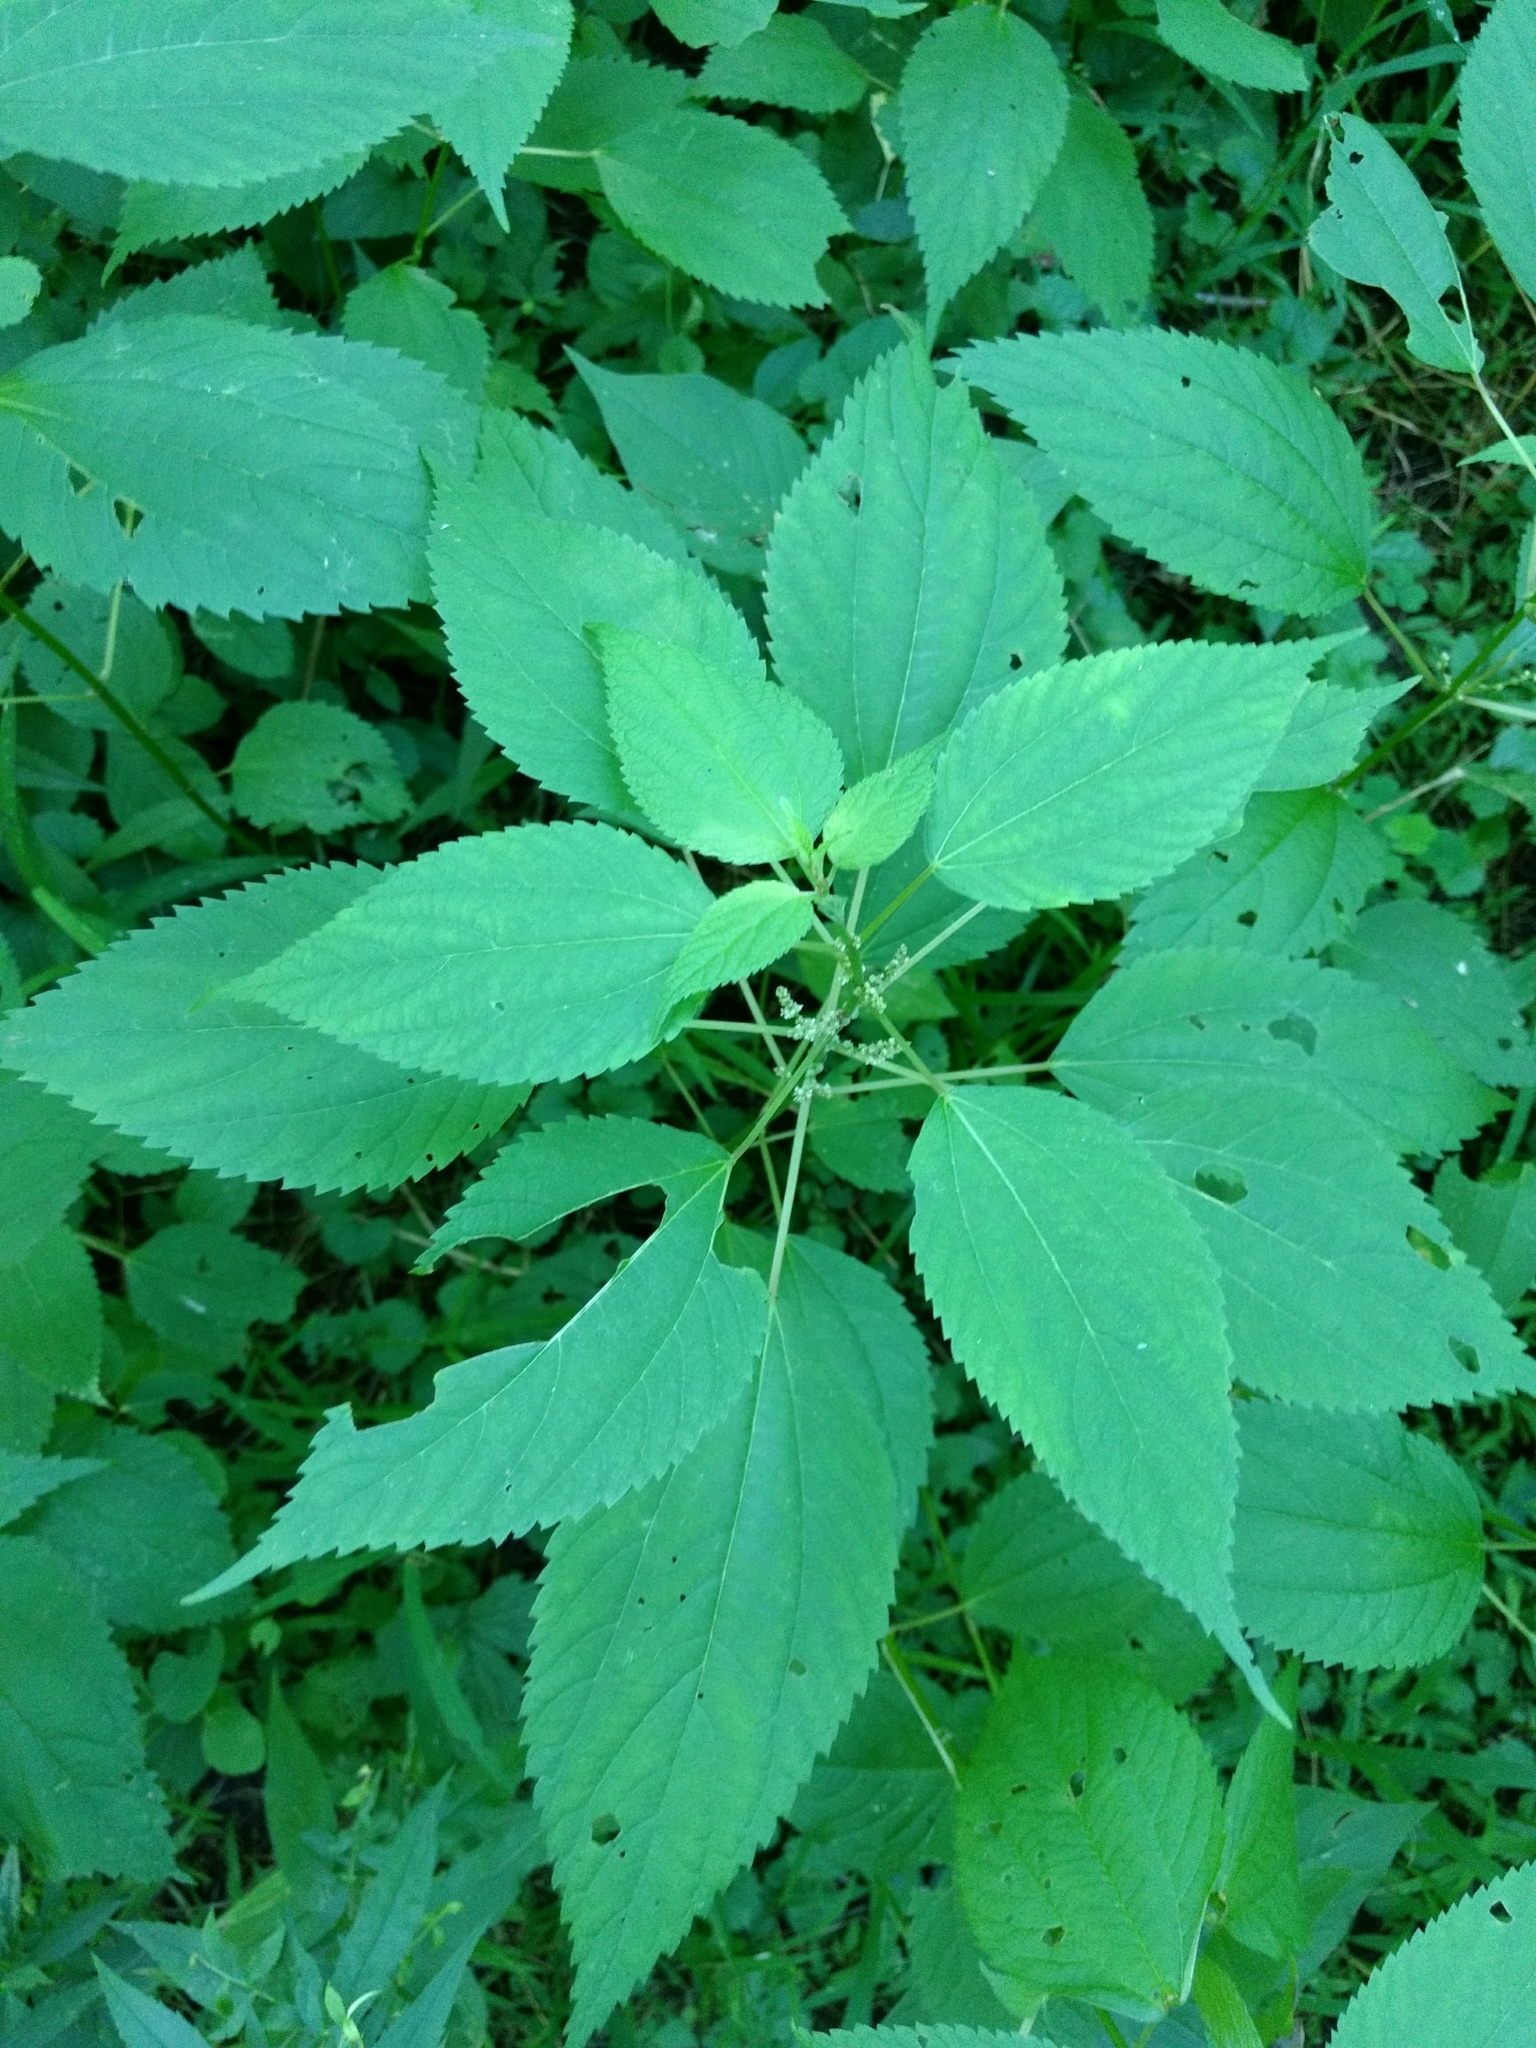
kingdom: Plantae
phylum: Tracheophyta
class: Magnoliopsida
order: Rosales
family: Urticaceae
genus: Laportea
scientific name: Laportea canadensis
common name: Canada nettle
